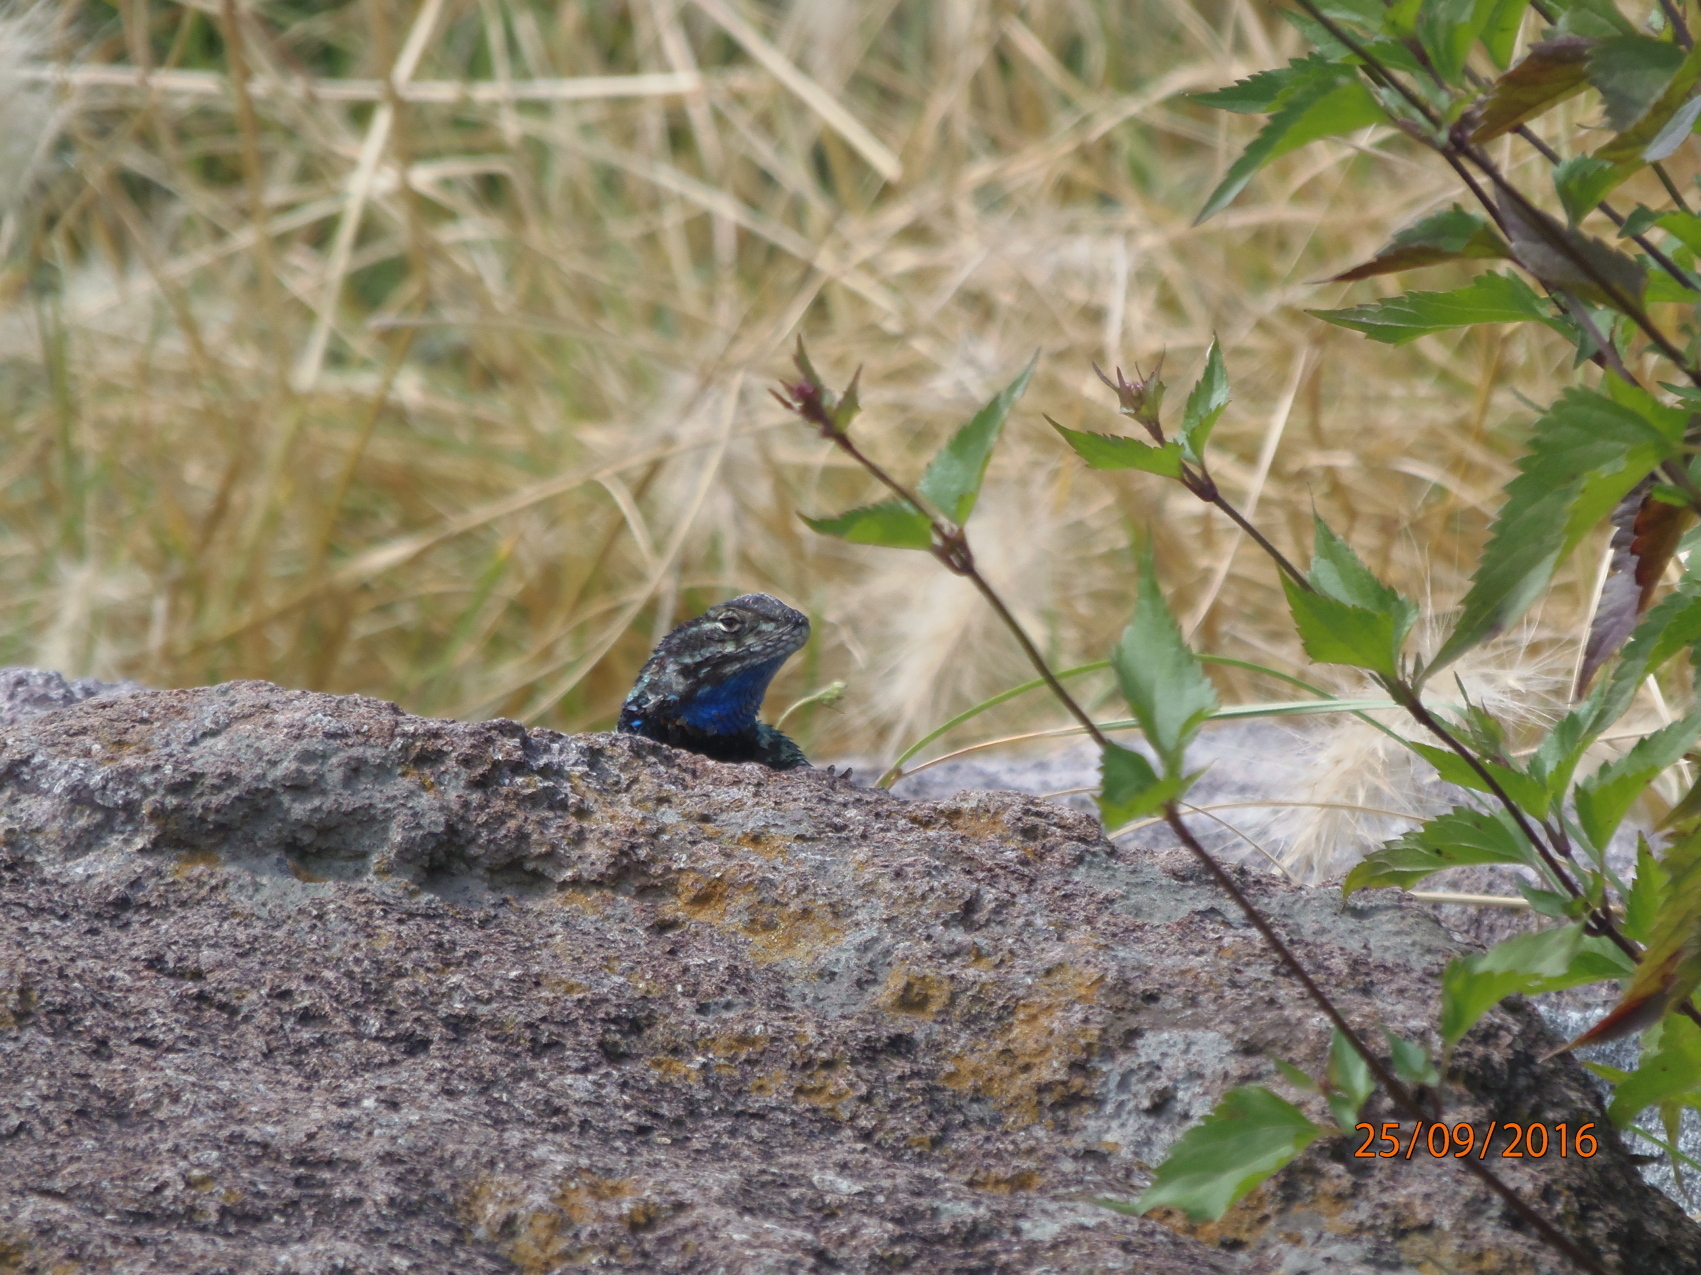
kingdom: Animalia
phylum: Chordata
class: Squamata
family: Phrynosomatidae
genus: Sceloporus
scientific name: Sceloporus torquatus
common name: Central plateau torquate lizard [melanogaster]
